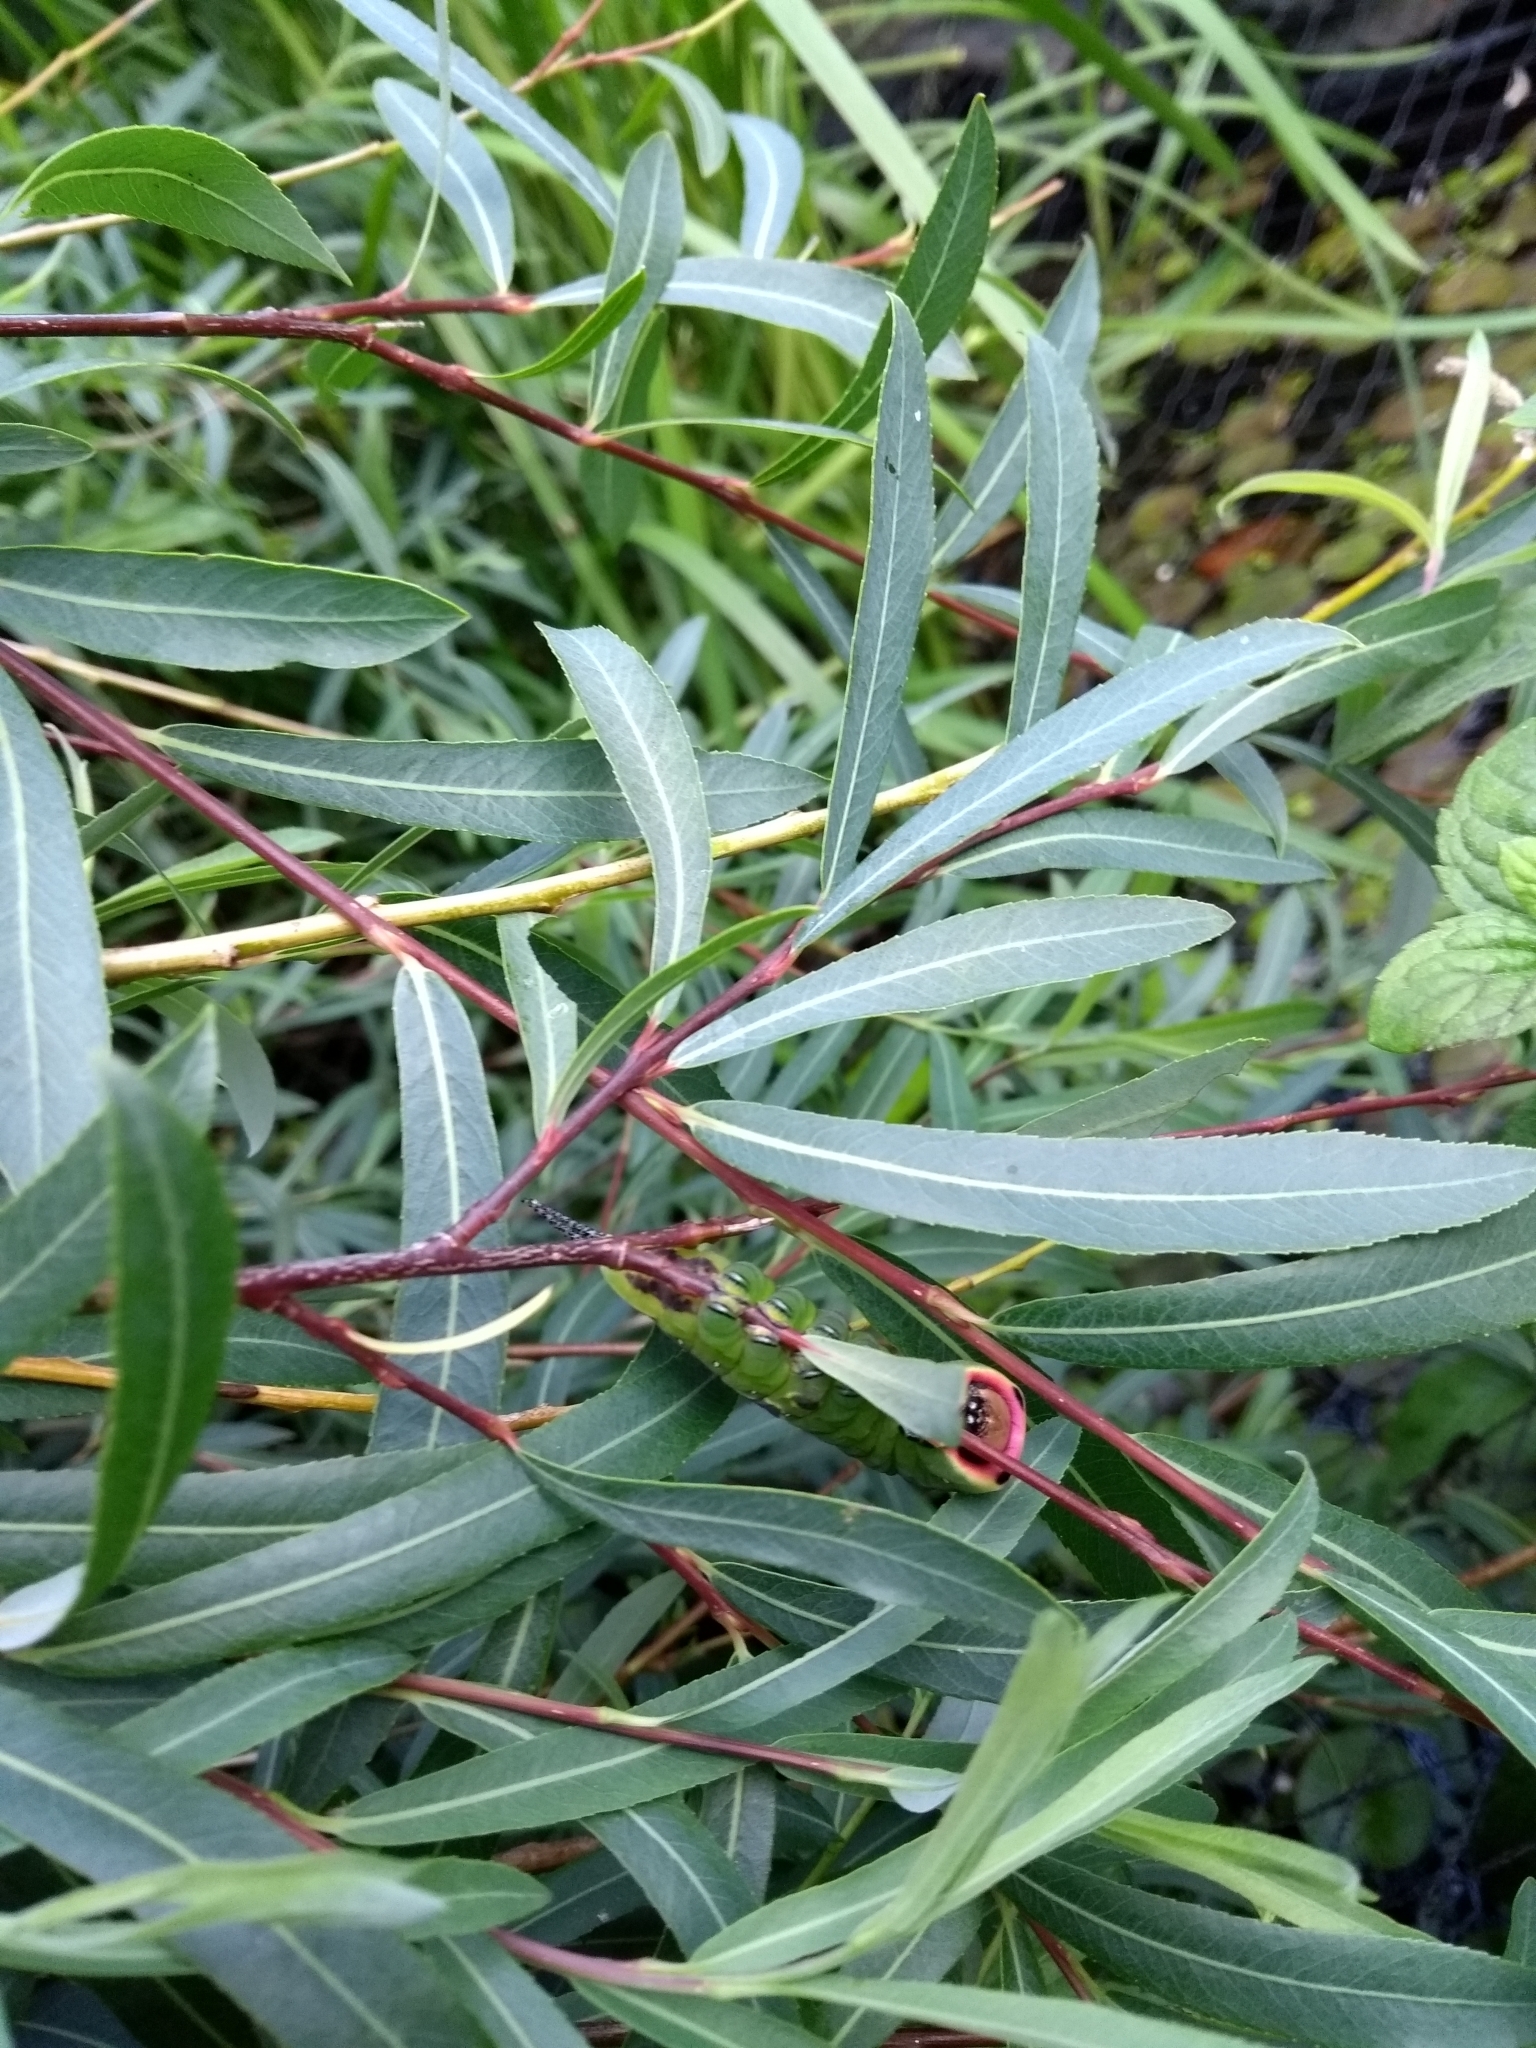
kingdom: Animalia
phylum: Arthropoda
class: Insecta
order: Lepidoptera
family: Notodontidae
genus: Cerura
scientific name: Cerura vinula
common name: Puss moth
